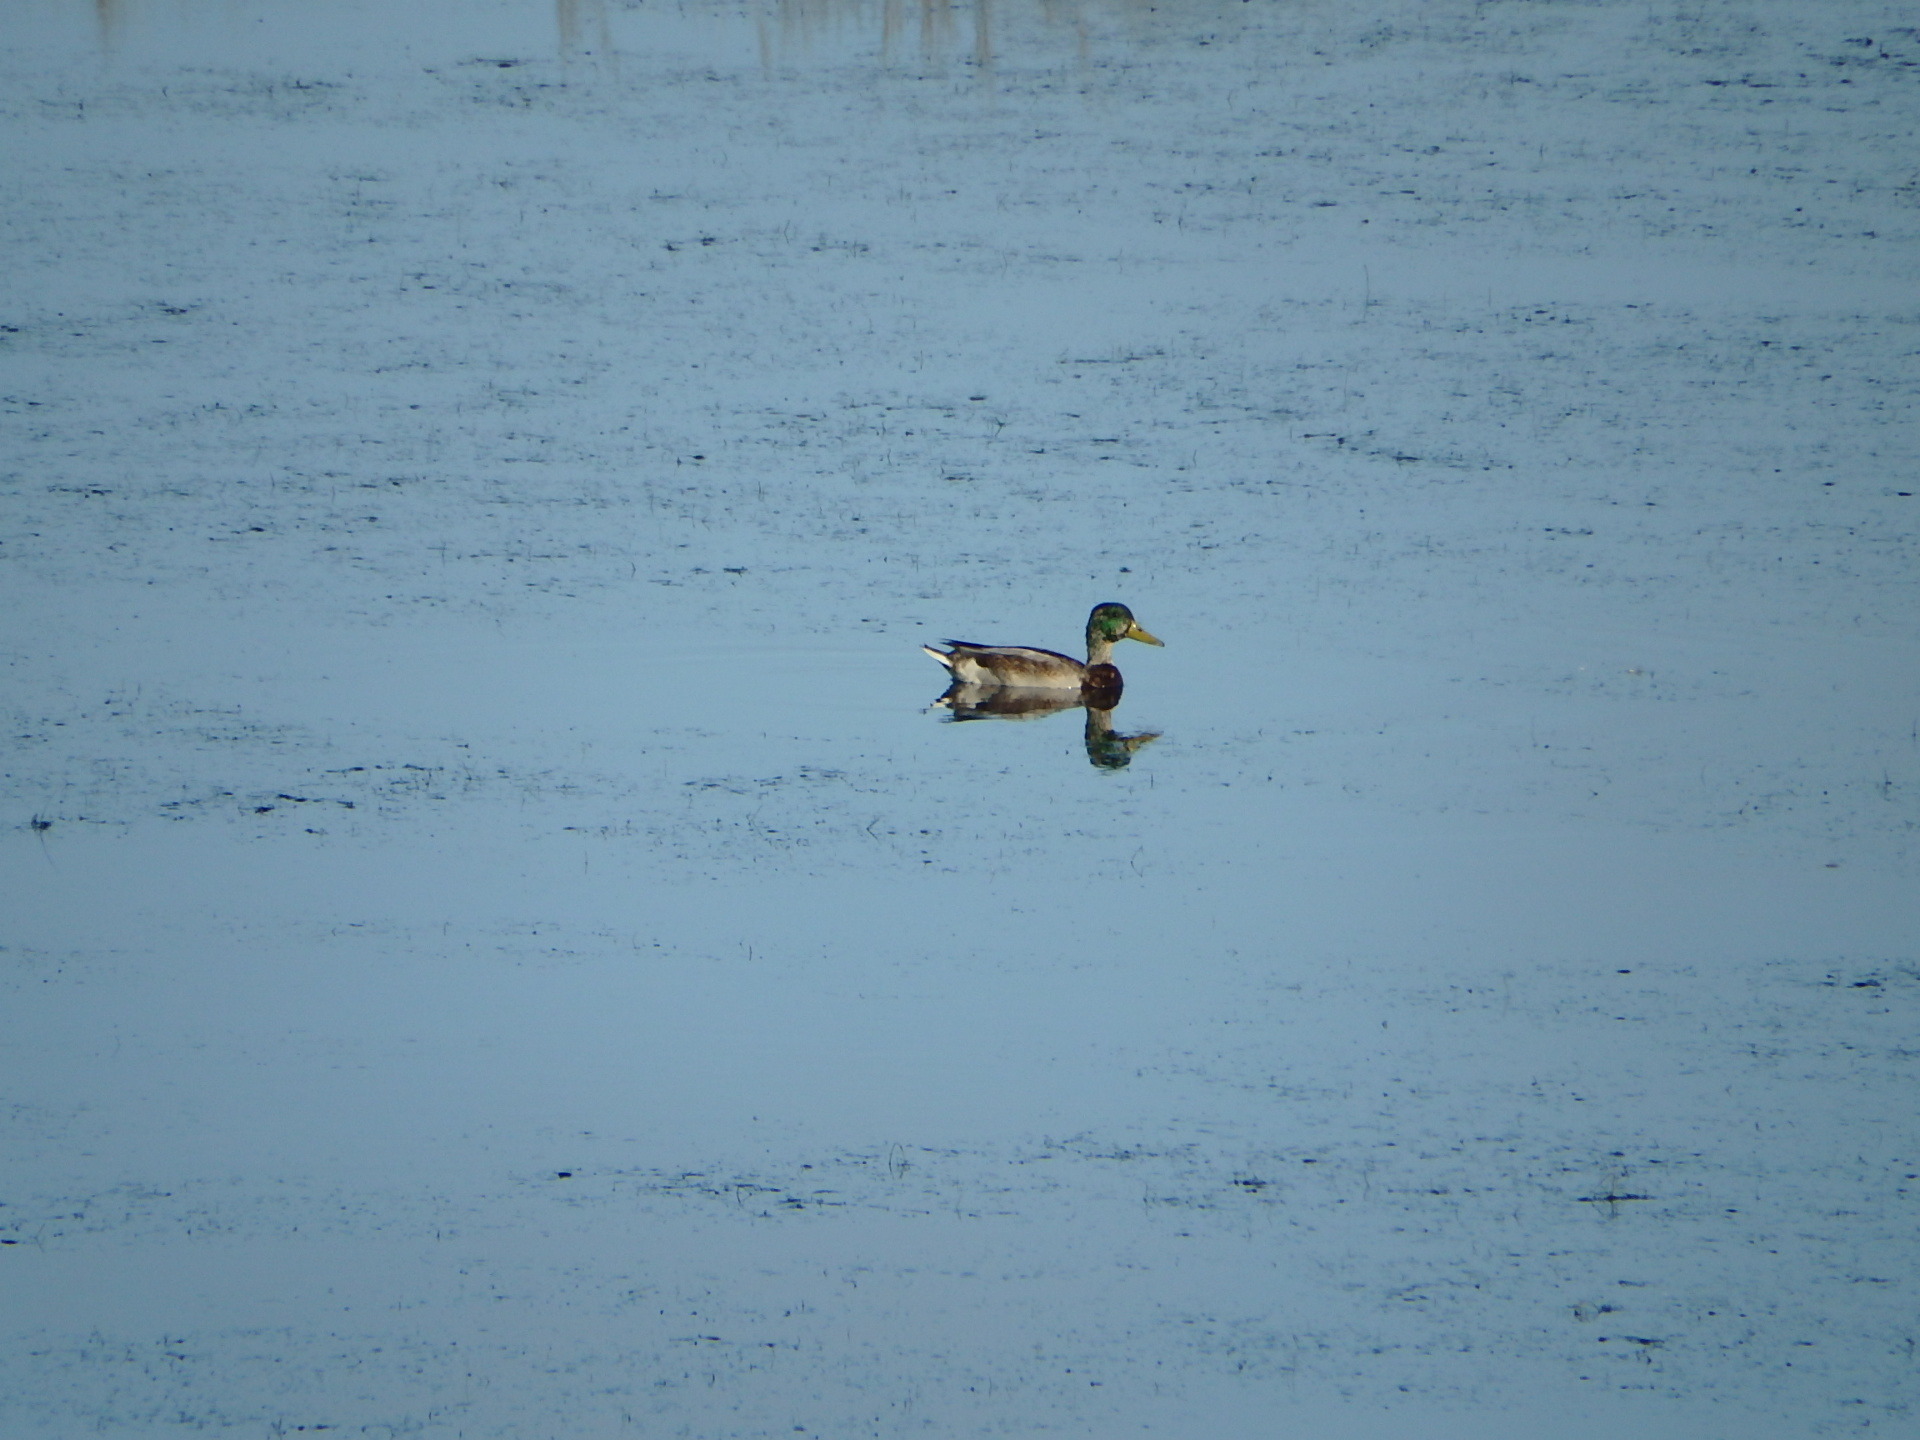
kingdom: Animalia
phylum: Chordata
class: Aves
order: Anseriformes
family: Anatidae
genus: Anas
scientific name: Anas platyrhynchos
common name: Mallard
